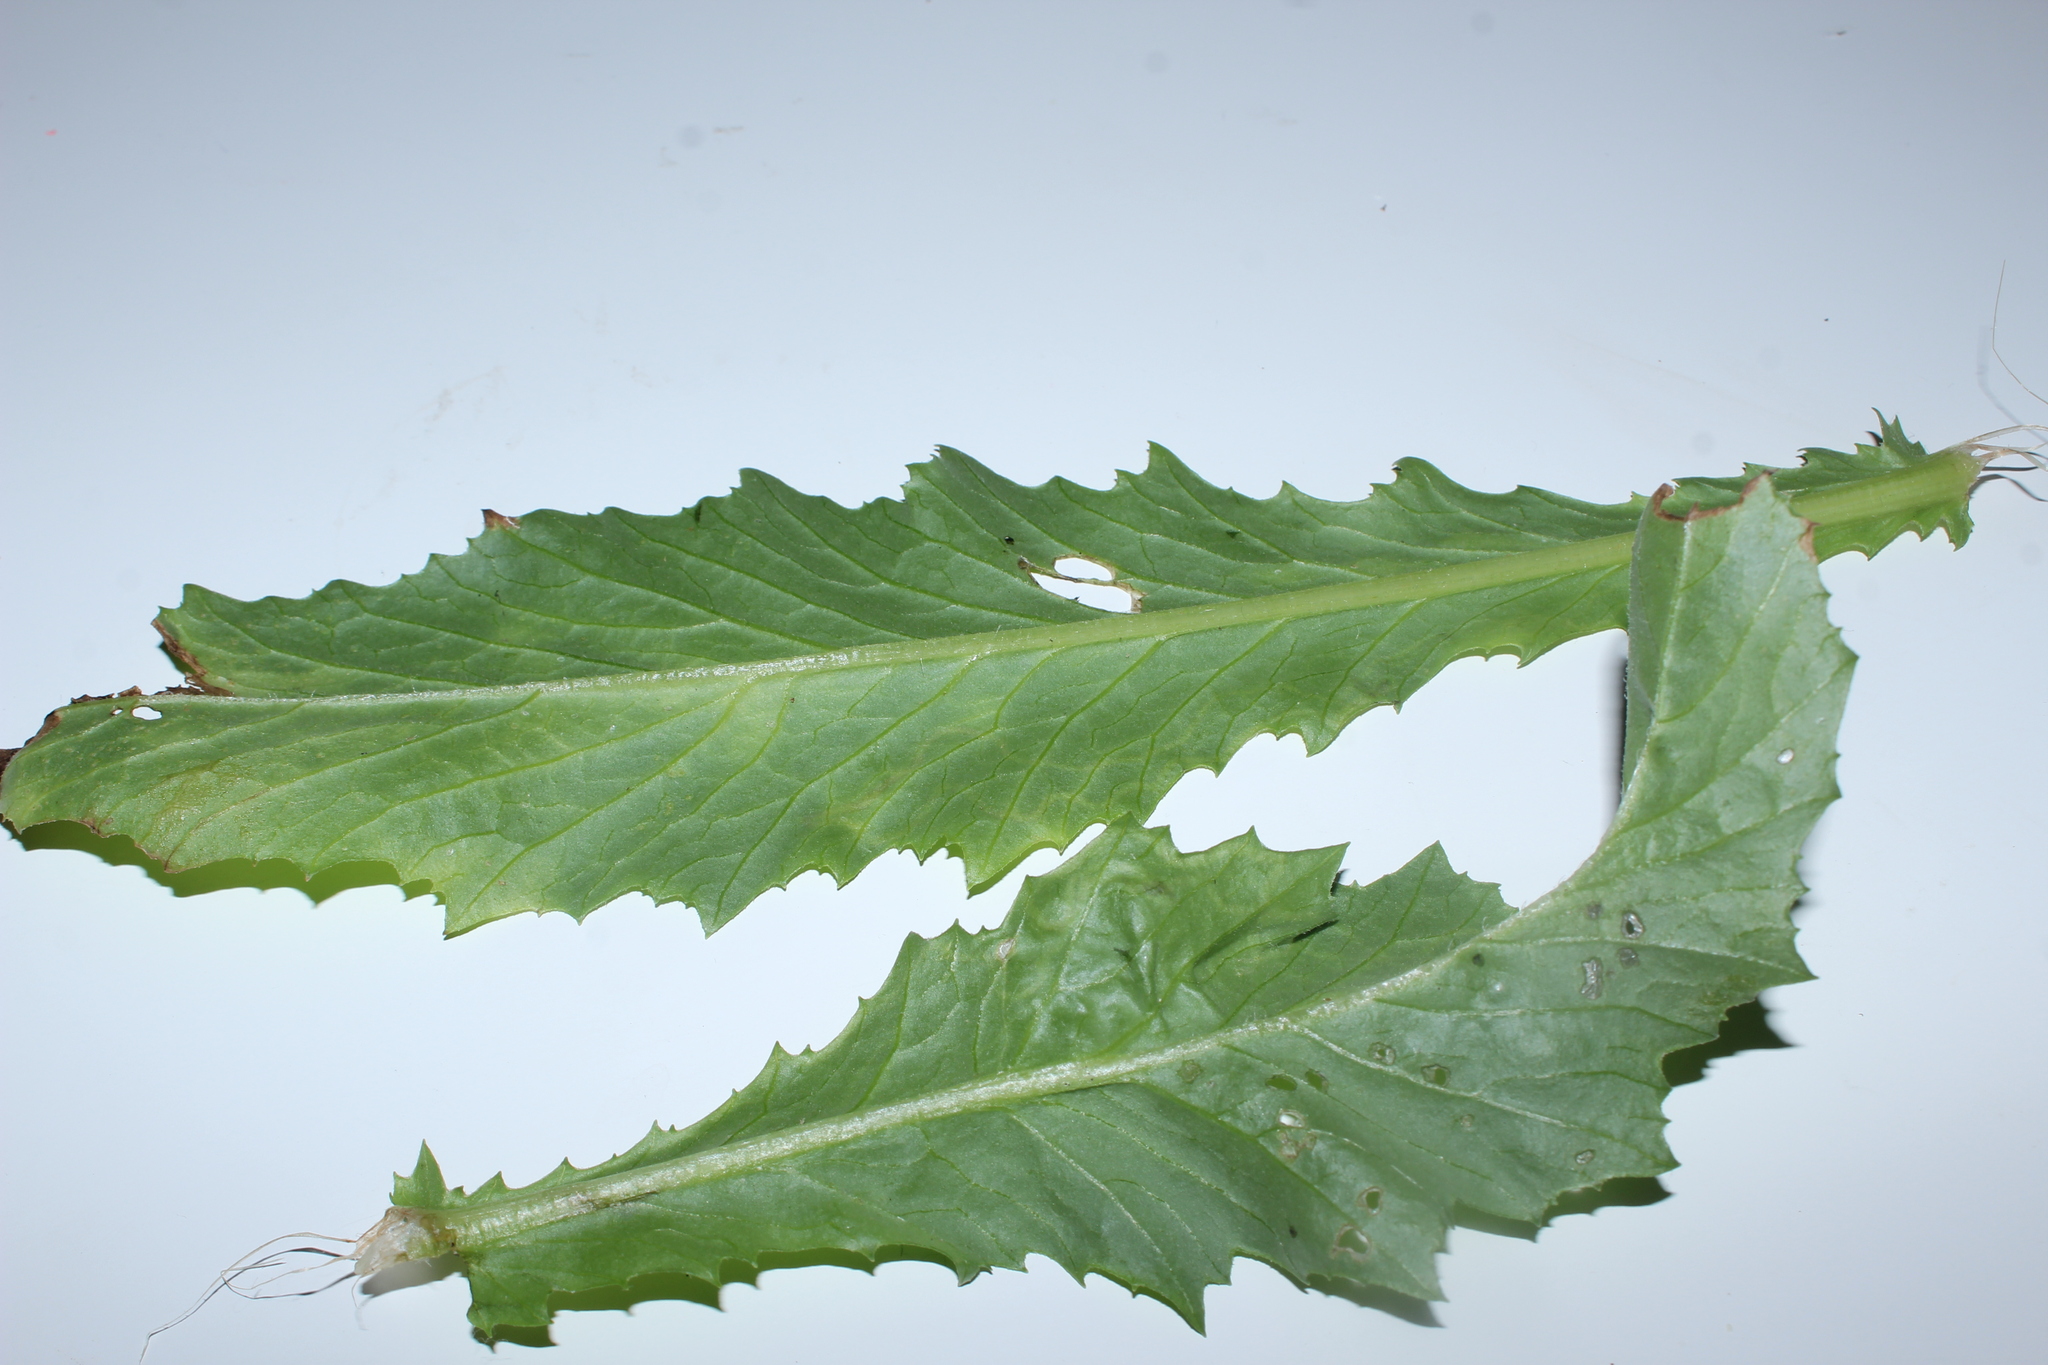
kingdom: Animalia
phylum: Arthropoda
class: Insecta
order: Lepidoptera
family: Gracillariidae
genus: Phyllocnistis
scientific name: Phyllocnistis insignis
